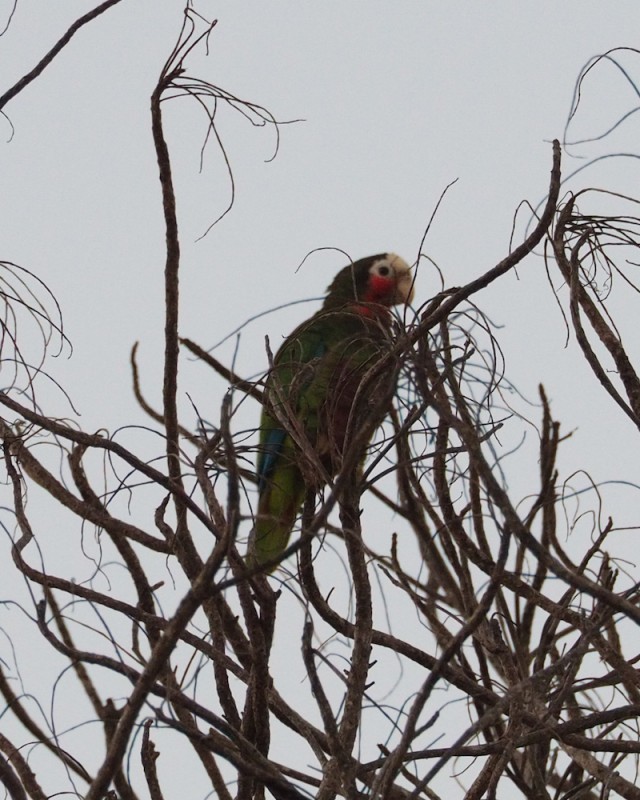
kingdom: Animalia
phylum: Chordata
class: Aves
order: Psittaciformes
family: Psittacidae
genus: Amazona
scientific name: Amazona leucocephala
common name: Cuban amazon
